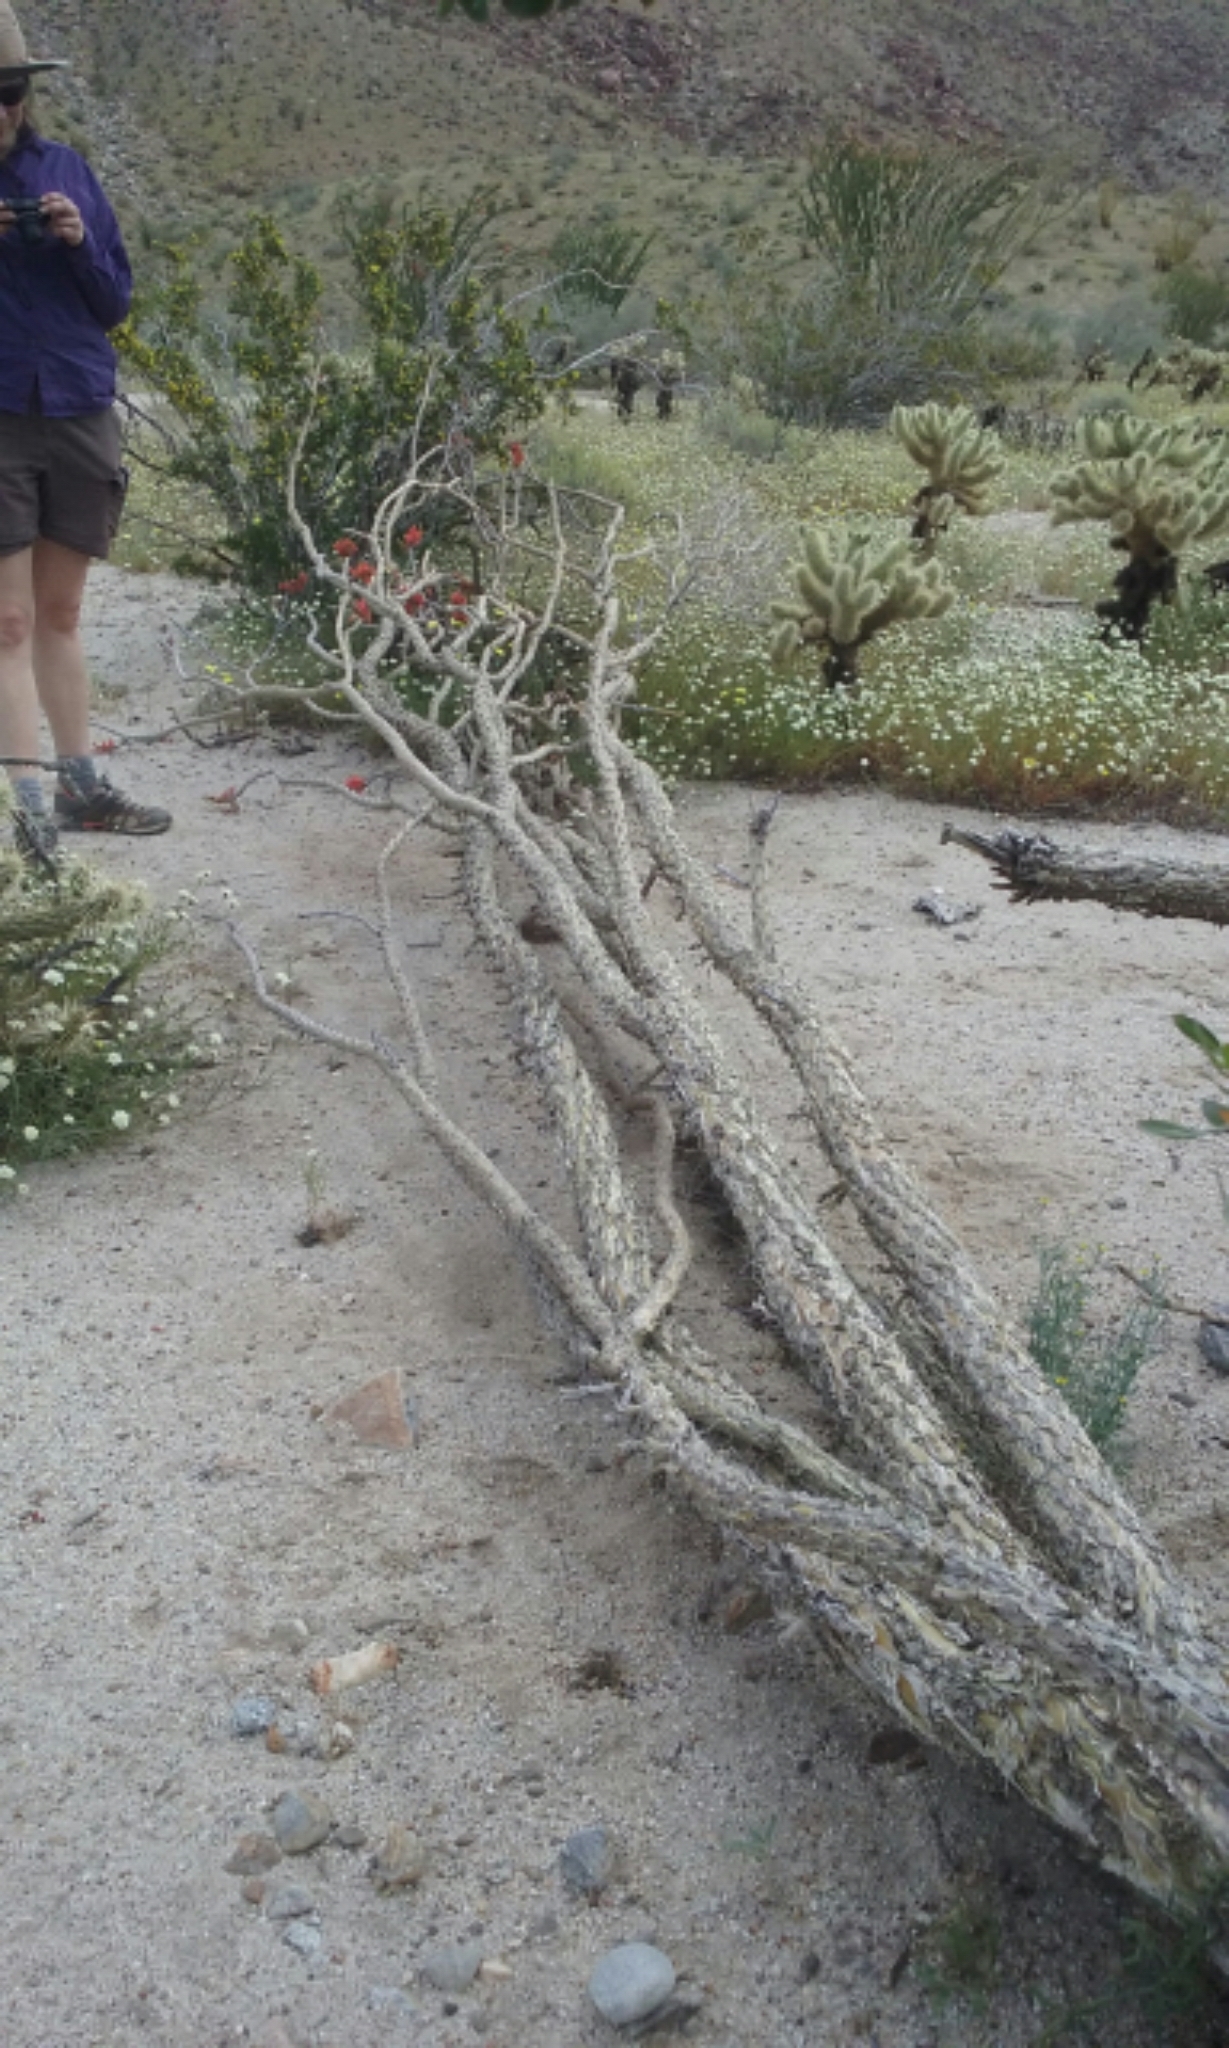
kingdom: Plantae
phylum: Tracheophyta
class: Magnoliopsida
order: Ericales
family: Fouquieriaceae
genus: Fouquieria
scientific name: Fouquieria splendens
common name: Vine-cactus
